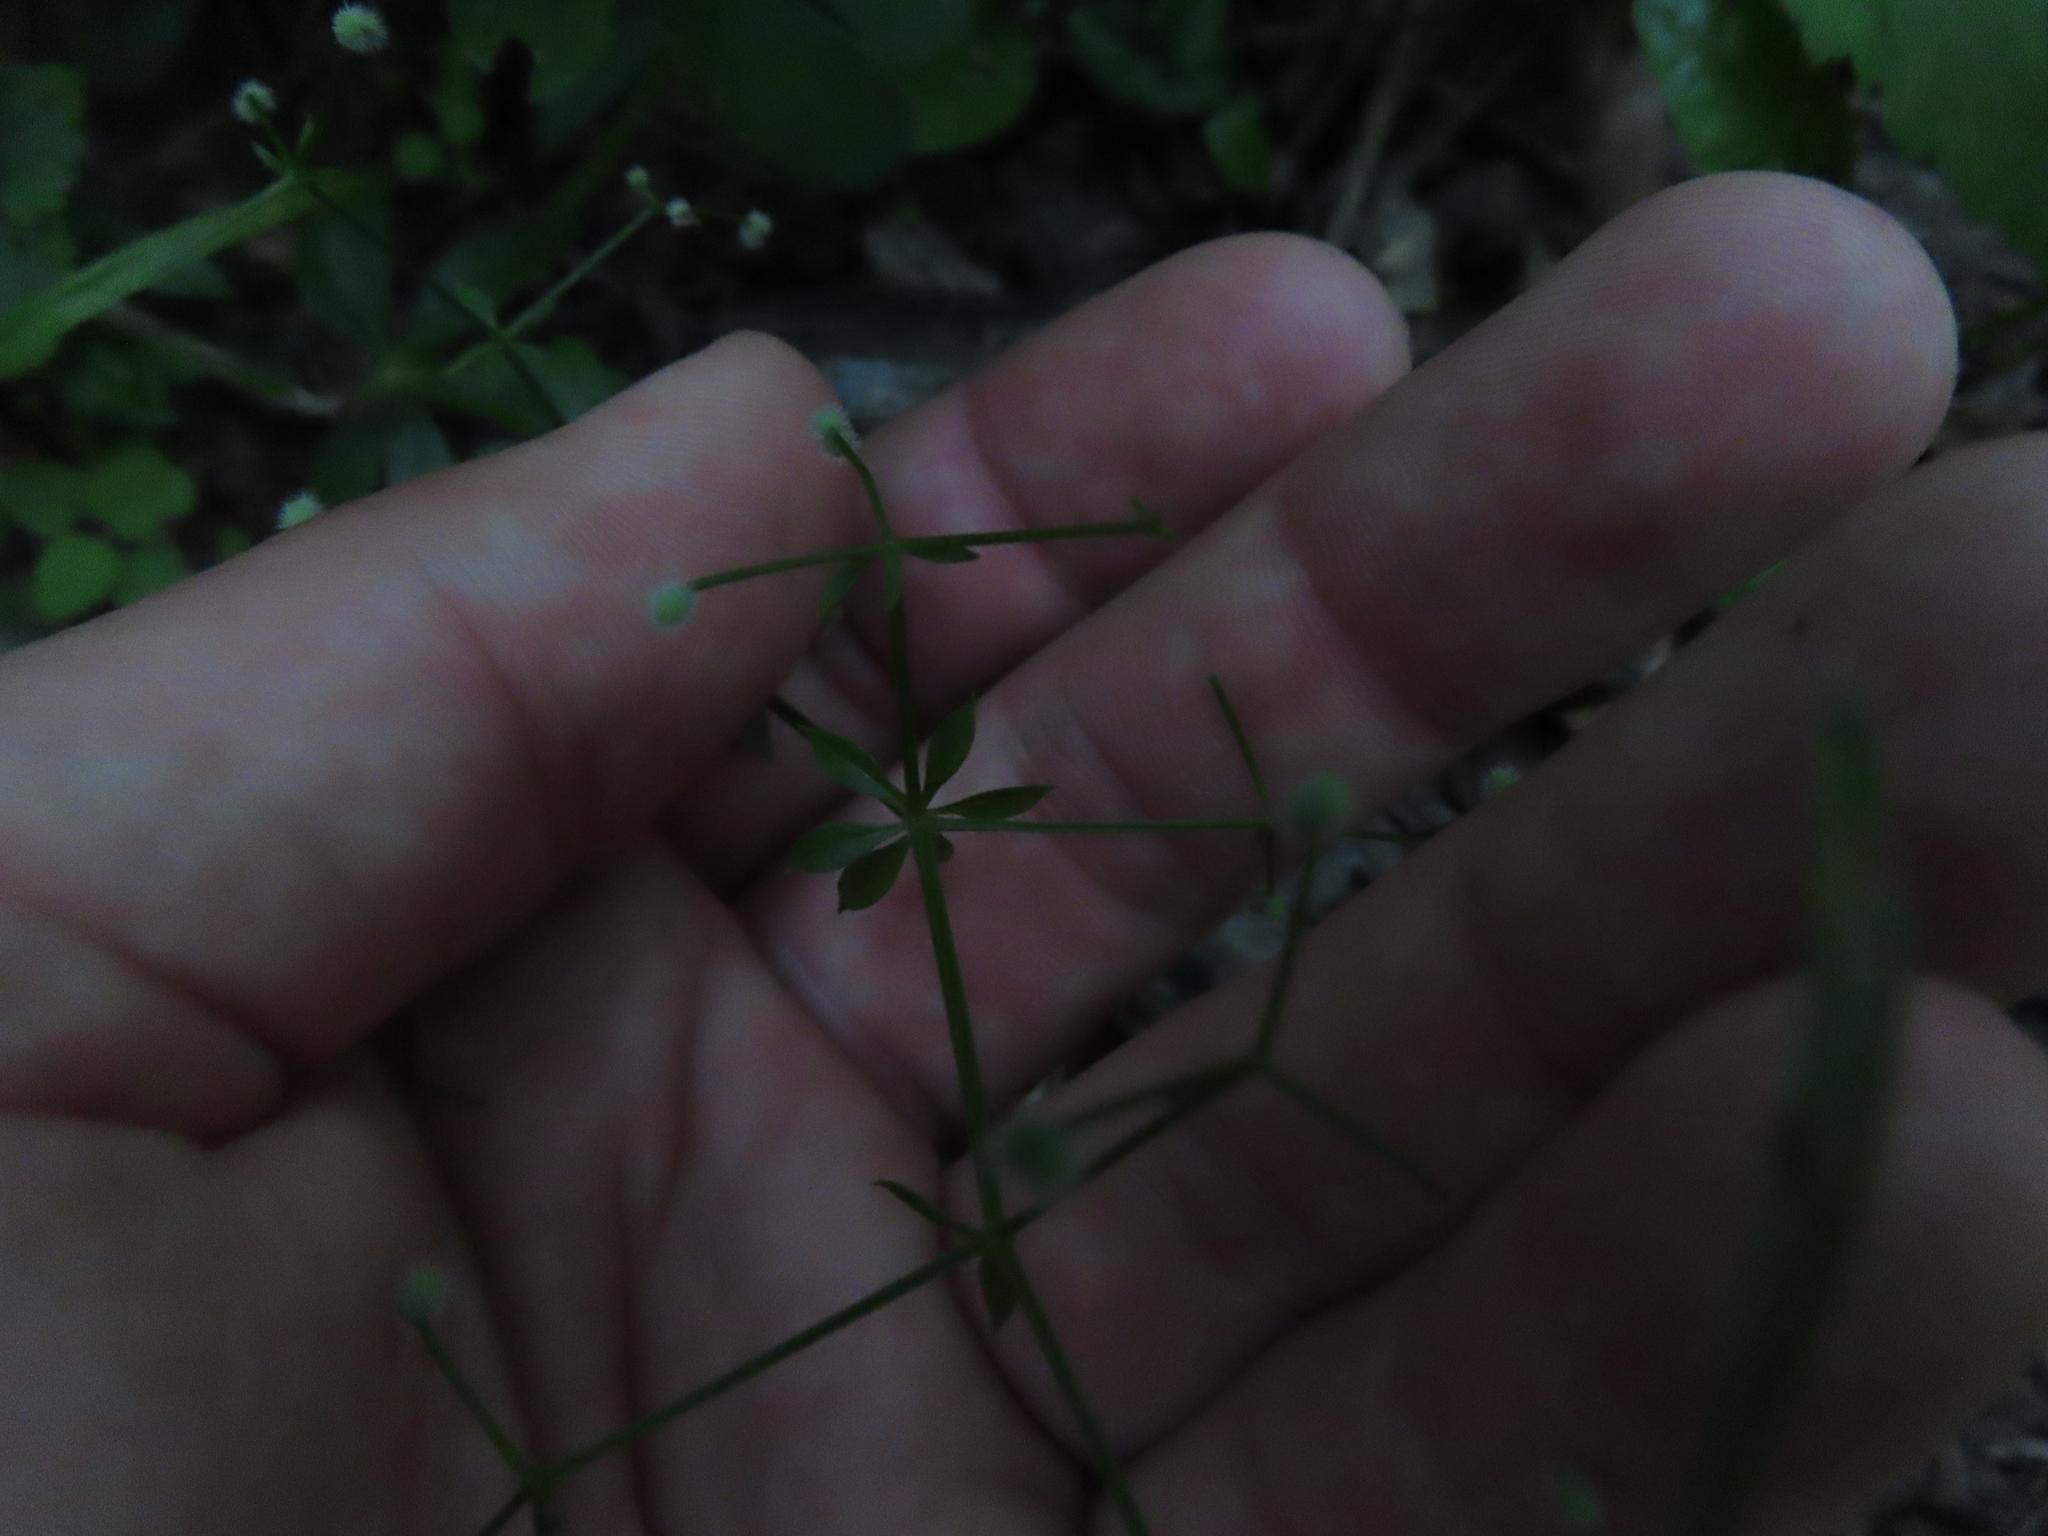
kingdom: Plantae
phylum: Tracheophyta
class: Magnoliopsida
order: Gentianales
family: Rubiaceae
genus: Galium
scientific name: Galium triflorum
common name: Fragrant bedstraw
